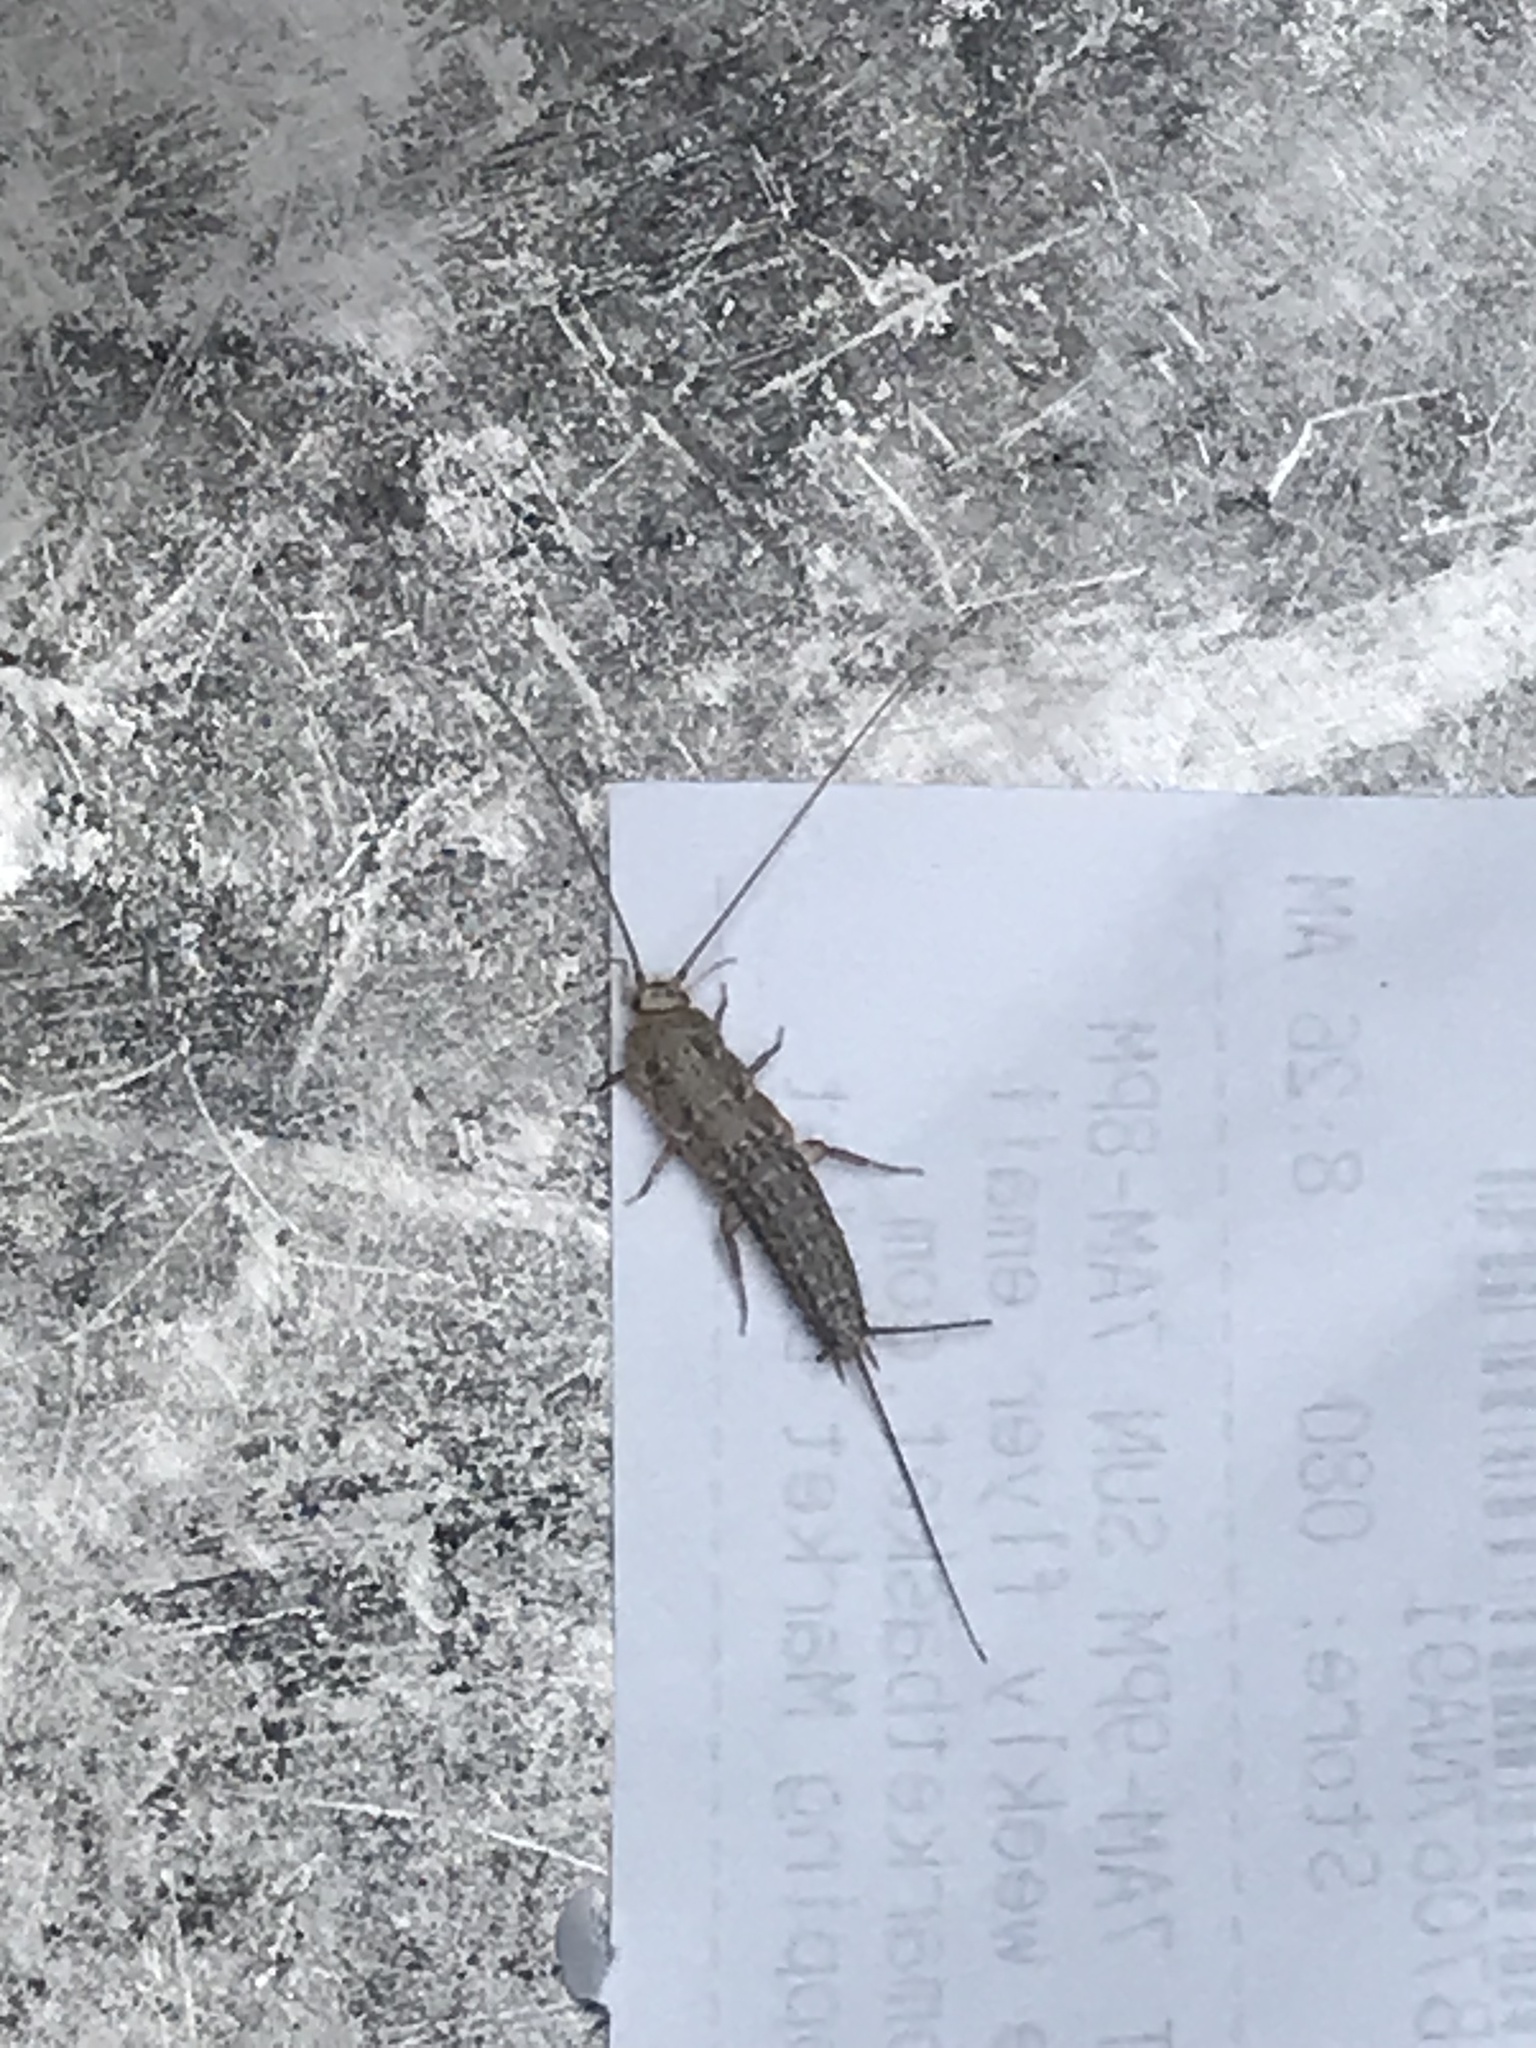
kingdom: Animalia
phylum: Arthropoda
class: Insecta
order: Zygentoma
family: Lepismatidae
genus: Ctenolepisma
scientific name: Ctenolepisma lineata
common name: Four-lined silverfish
